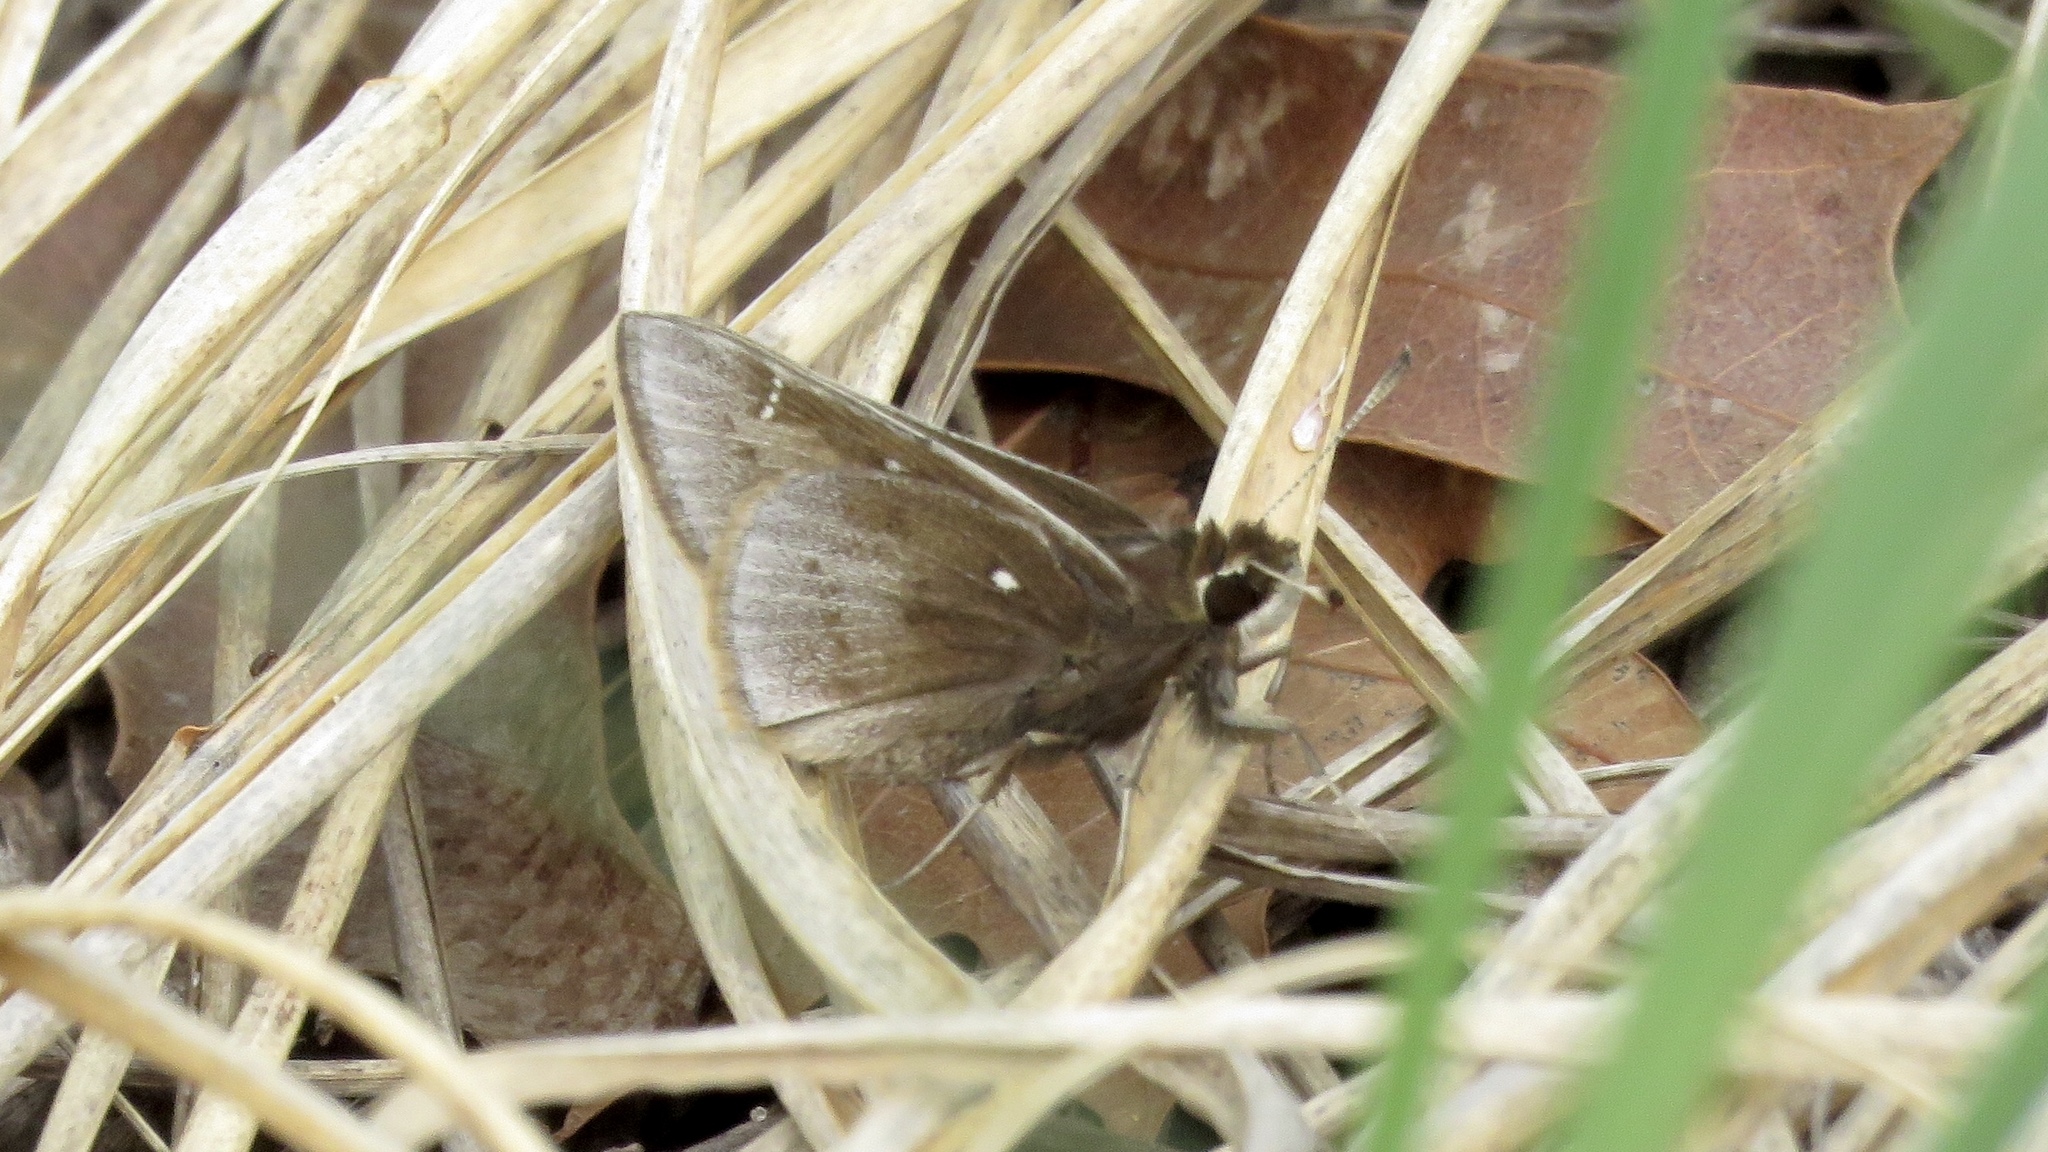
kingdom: Animalia
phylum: Arthropoda
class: Insecta
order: Lepidoptera
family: Hesperiidae
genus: Atrytonopsis
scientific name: Atrytonopsis hianna
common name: Dusted skipper
